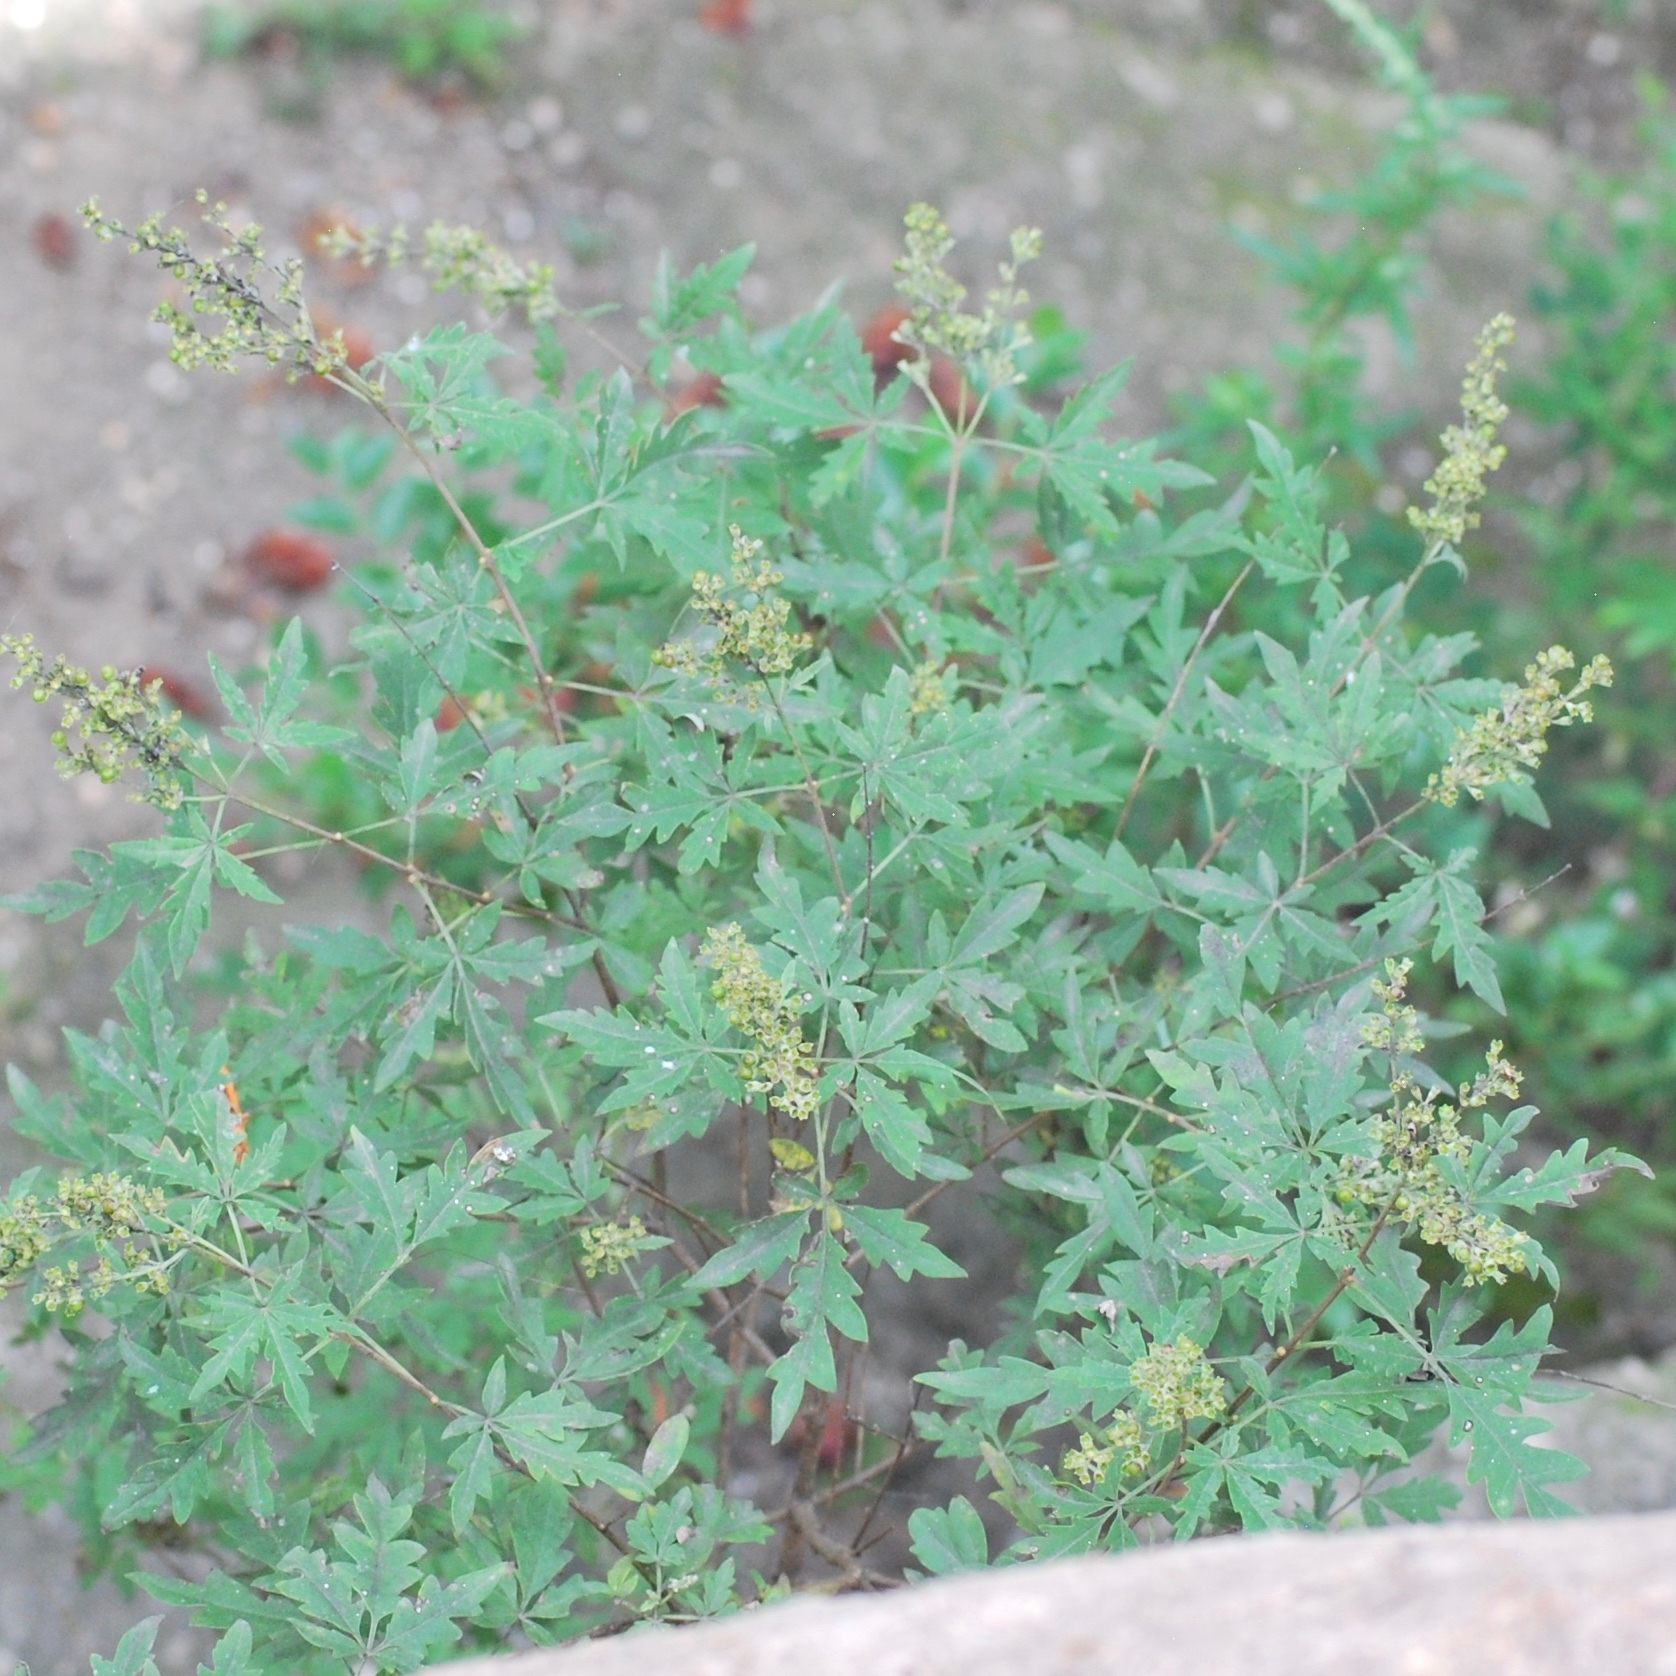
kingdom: Plantae
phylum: Tracheophyta
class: Magnoliopsida
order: Lamiales
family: Lamiaceae
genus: Vitex
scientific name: Vitex negundo
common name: Chinese chastetree
